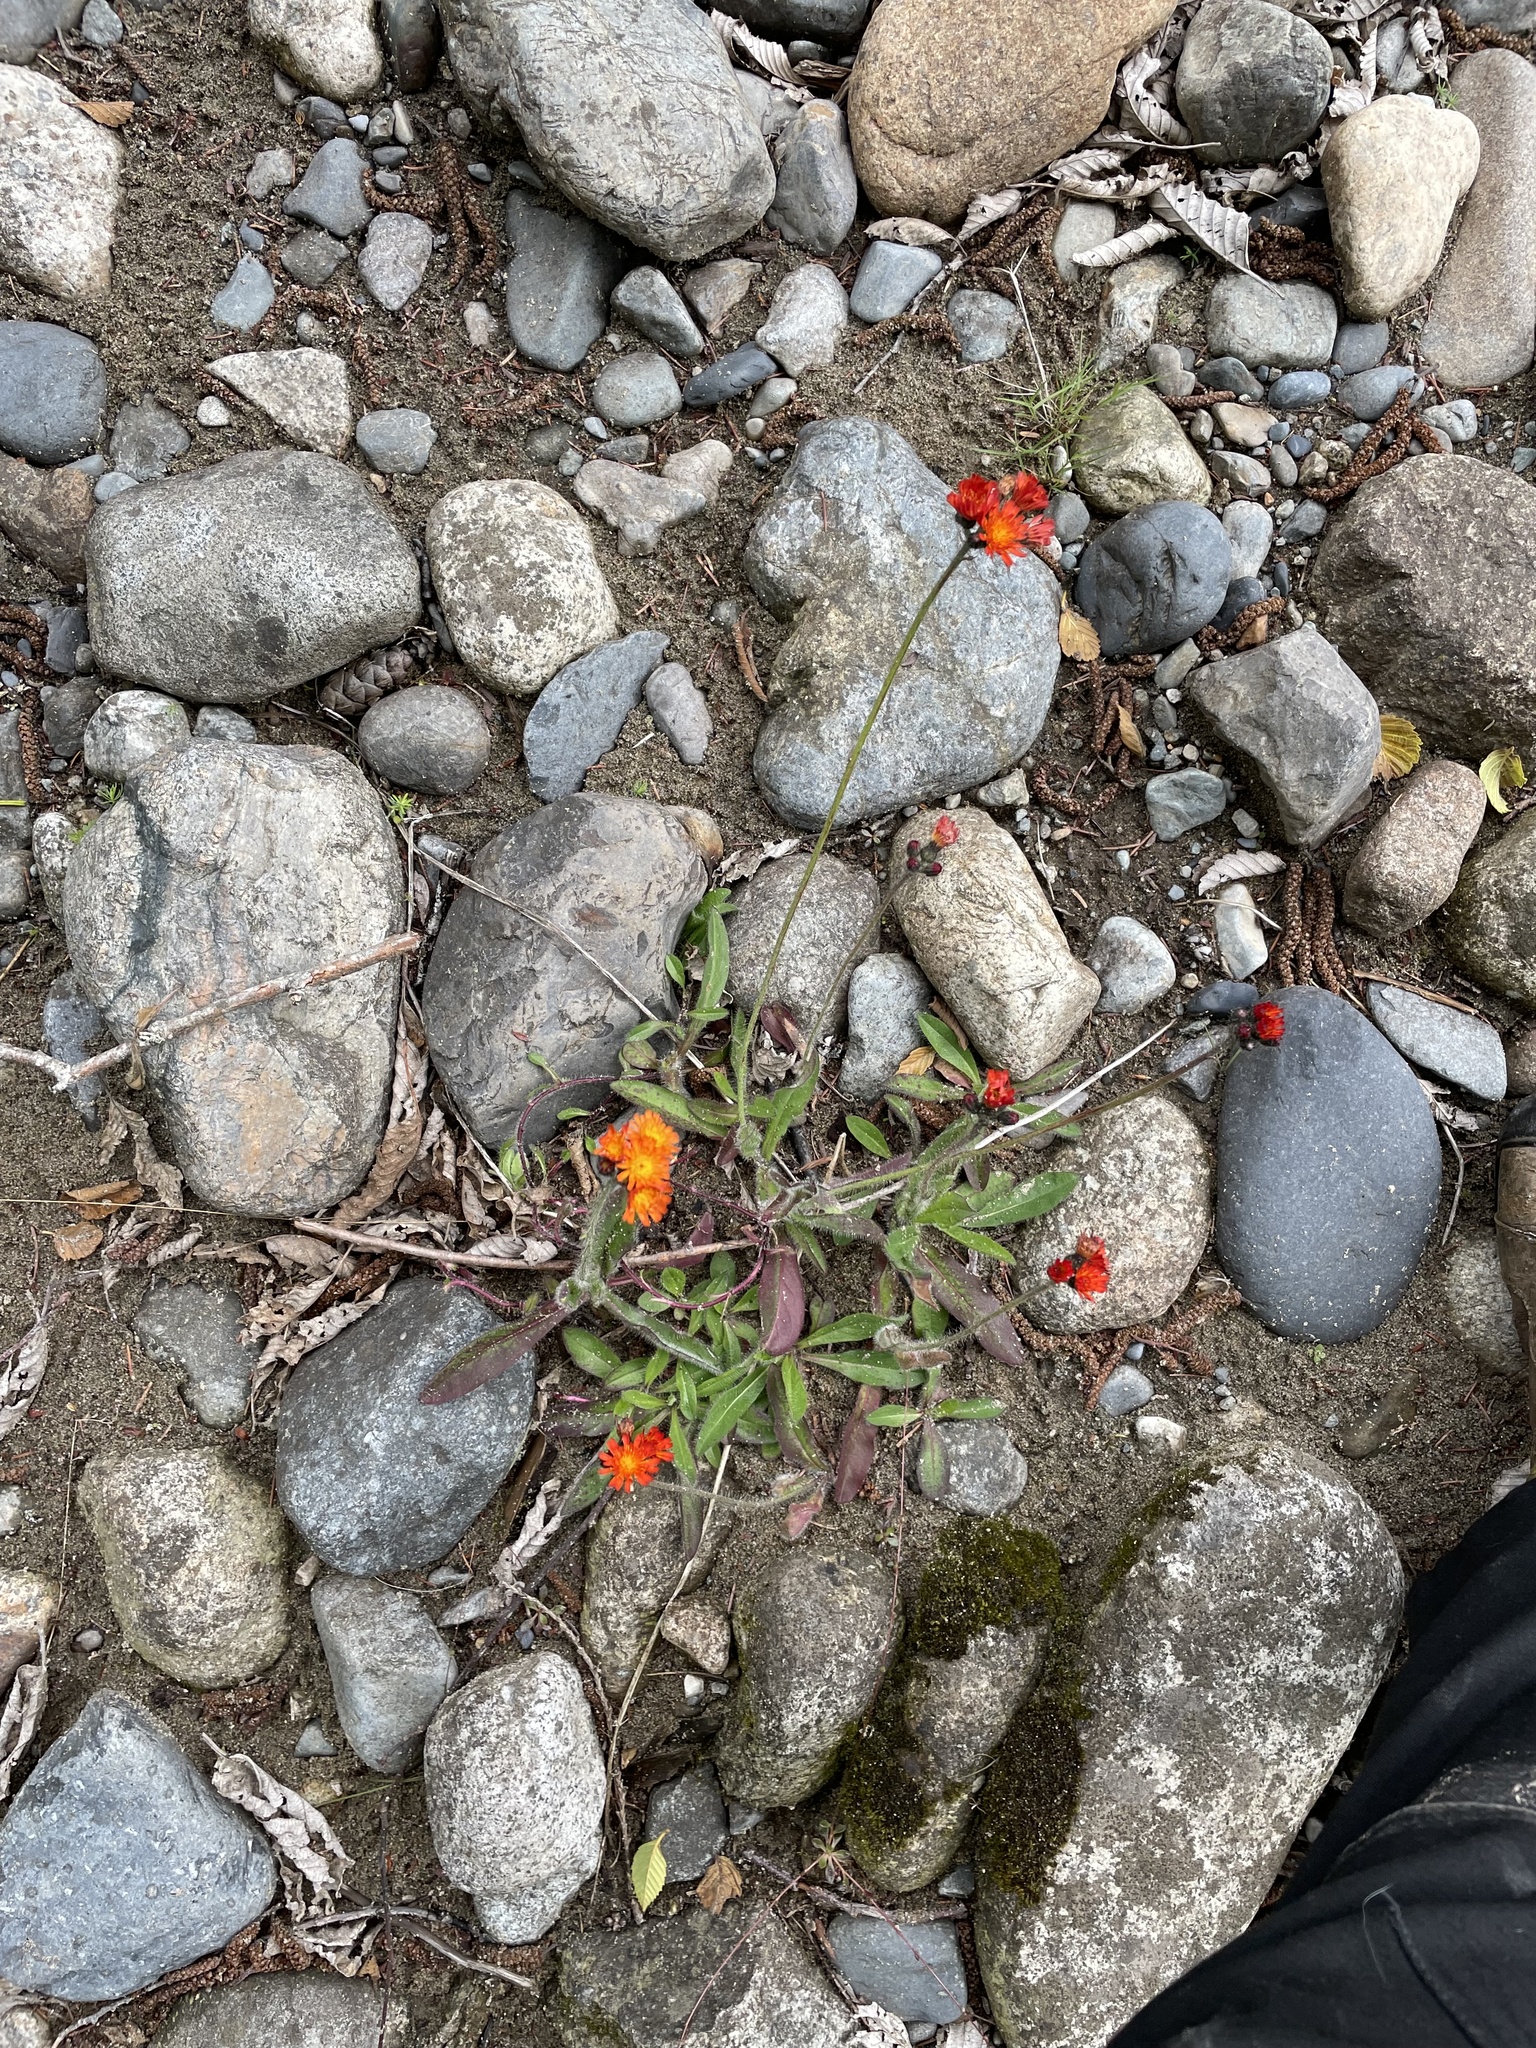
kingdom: Plantae
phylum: Tracheophyta
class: Magnoliopsida
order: Asterales
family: Asteraceae
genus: Pilosella
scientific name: Pilosella aurantiaca
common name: Fox-and-cubs
